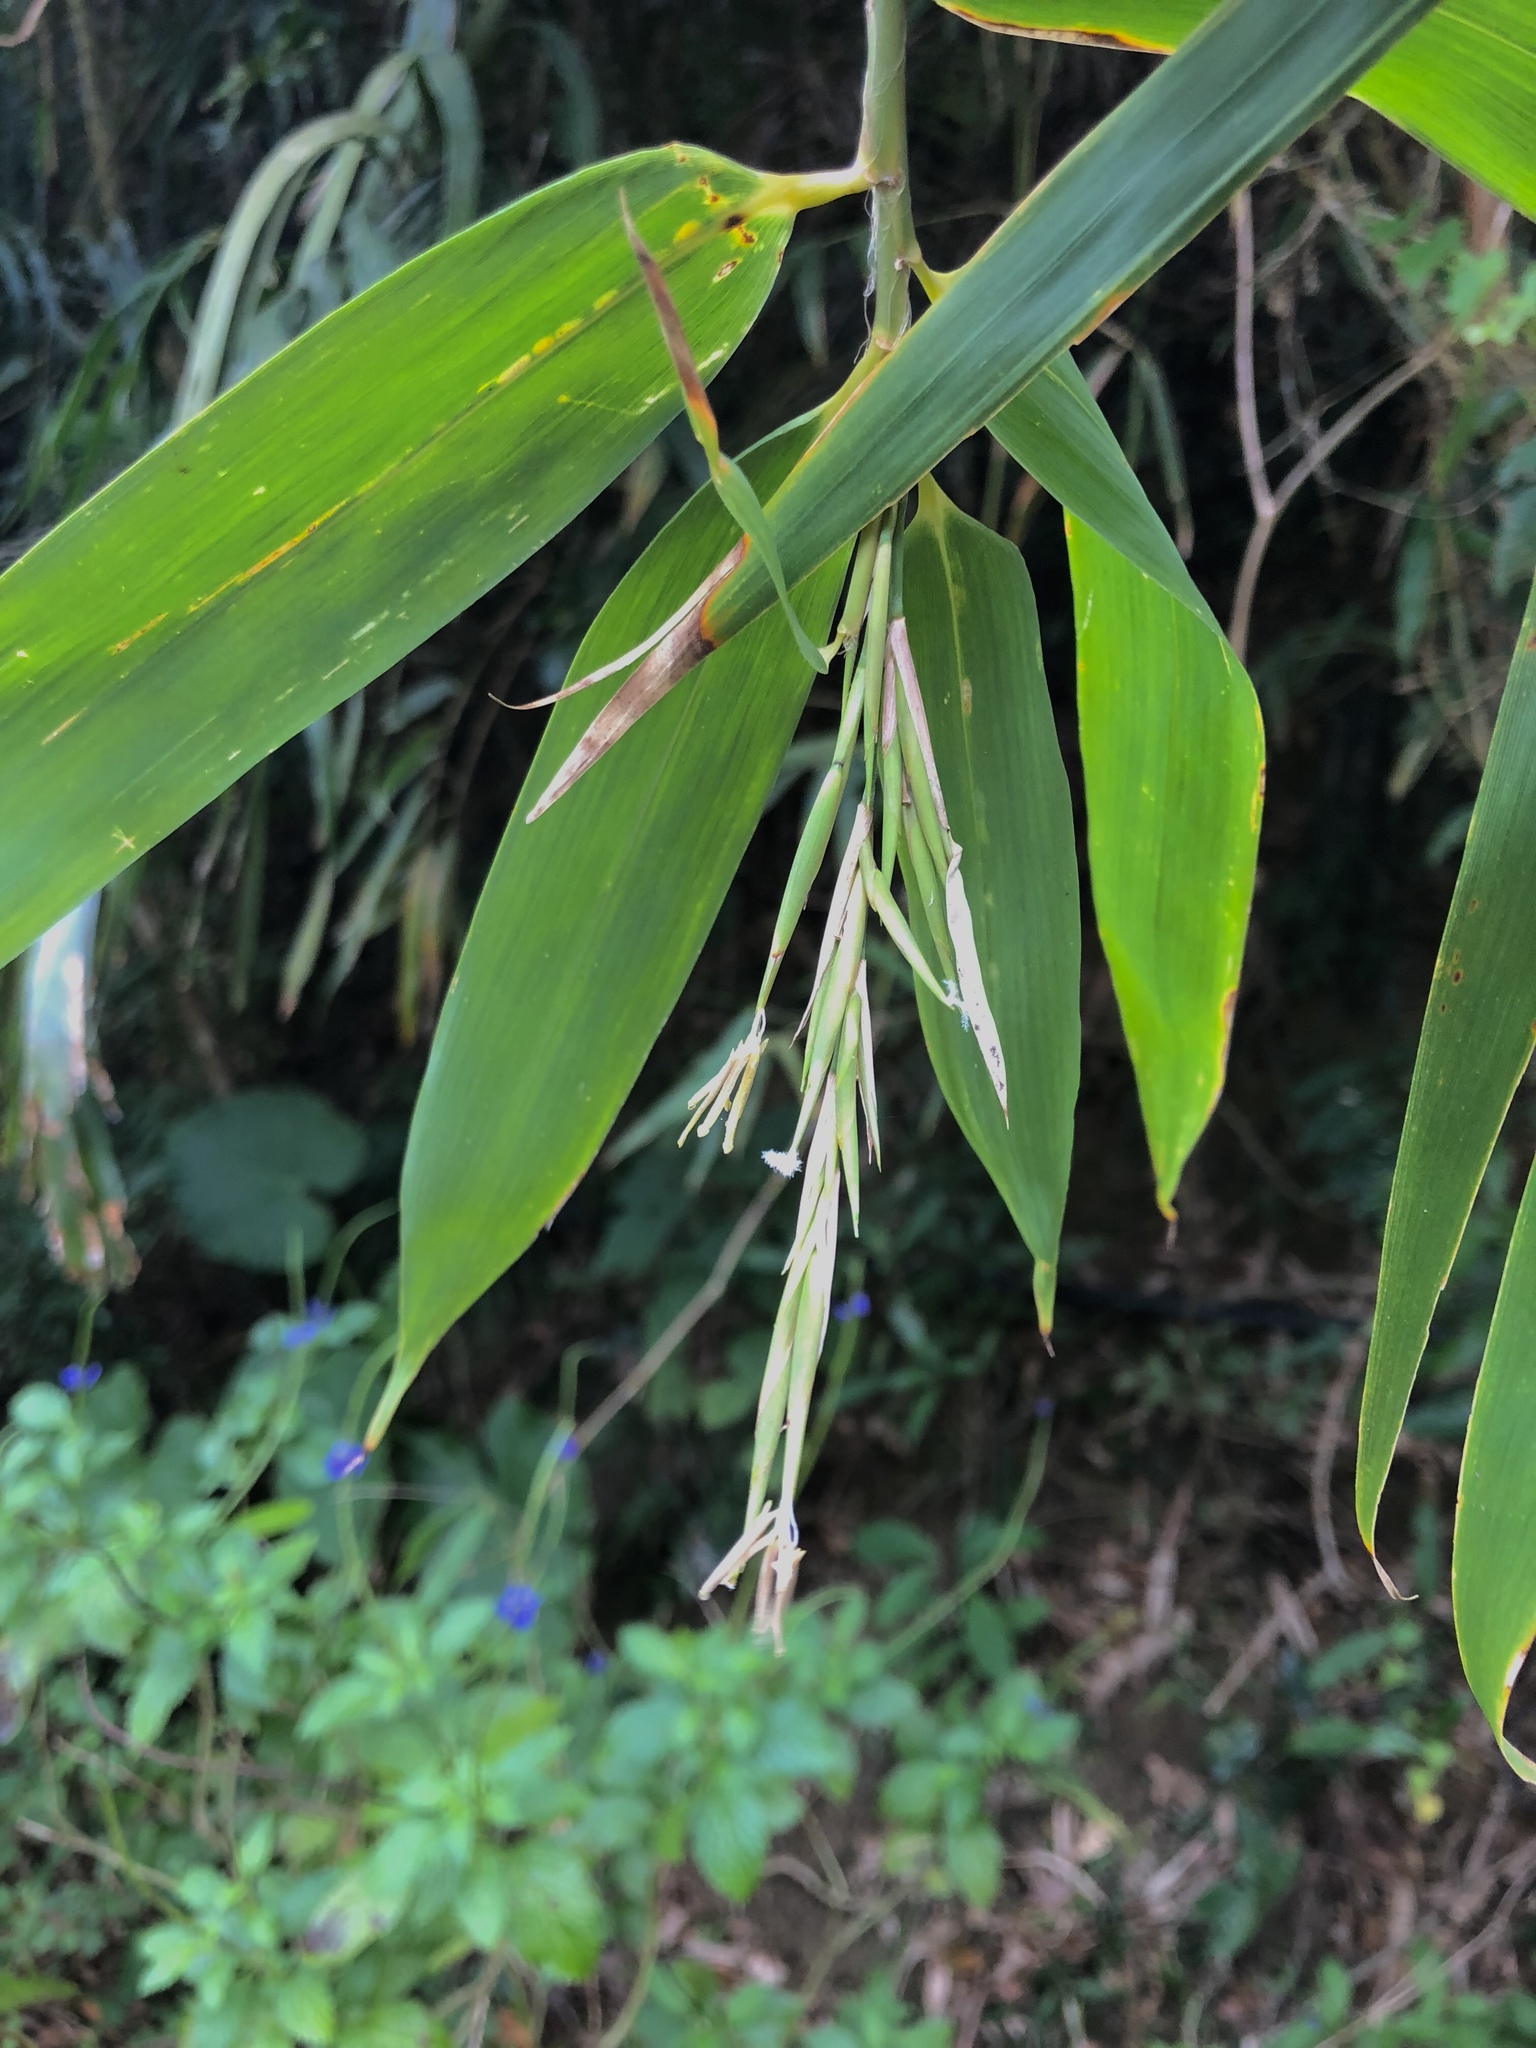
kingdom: Plantae
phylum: Tracheophyta
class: Liliopsida
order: Poales
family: Poaceae
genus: Bambusa
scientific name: Bambusa diffusa
